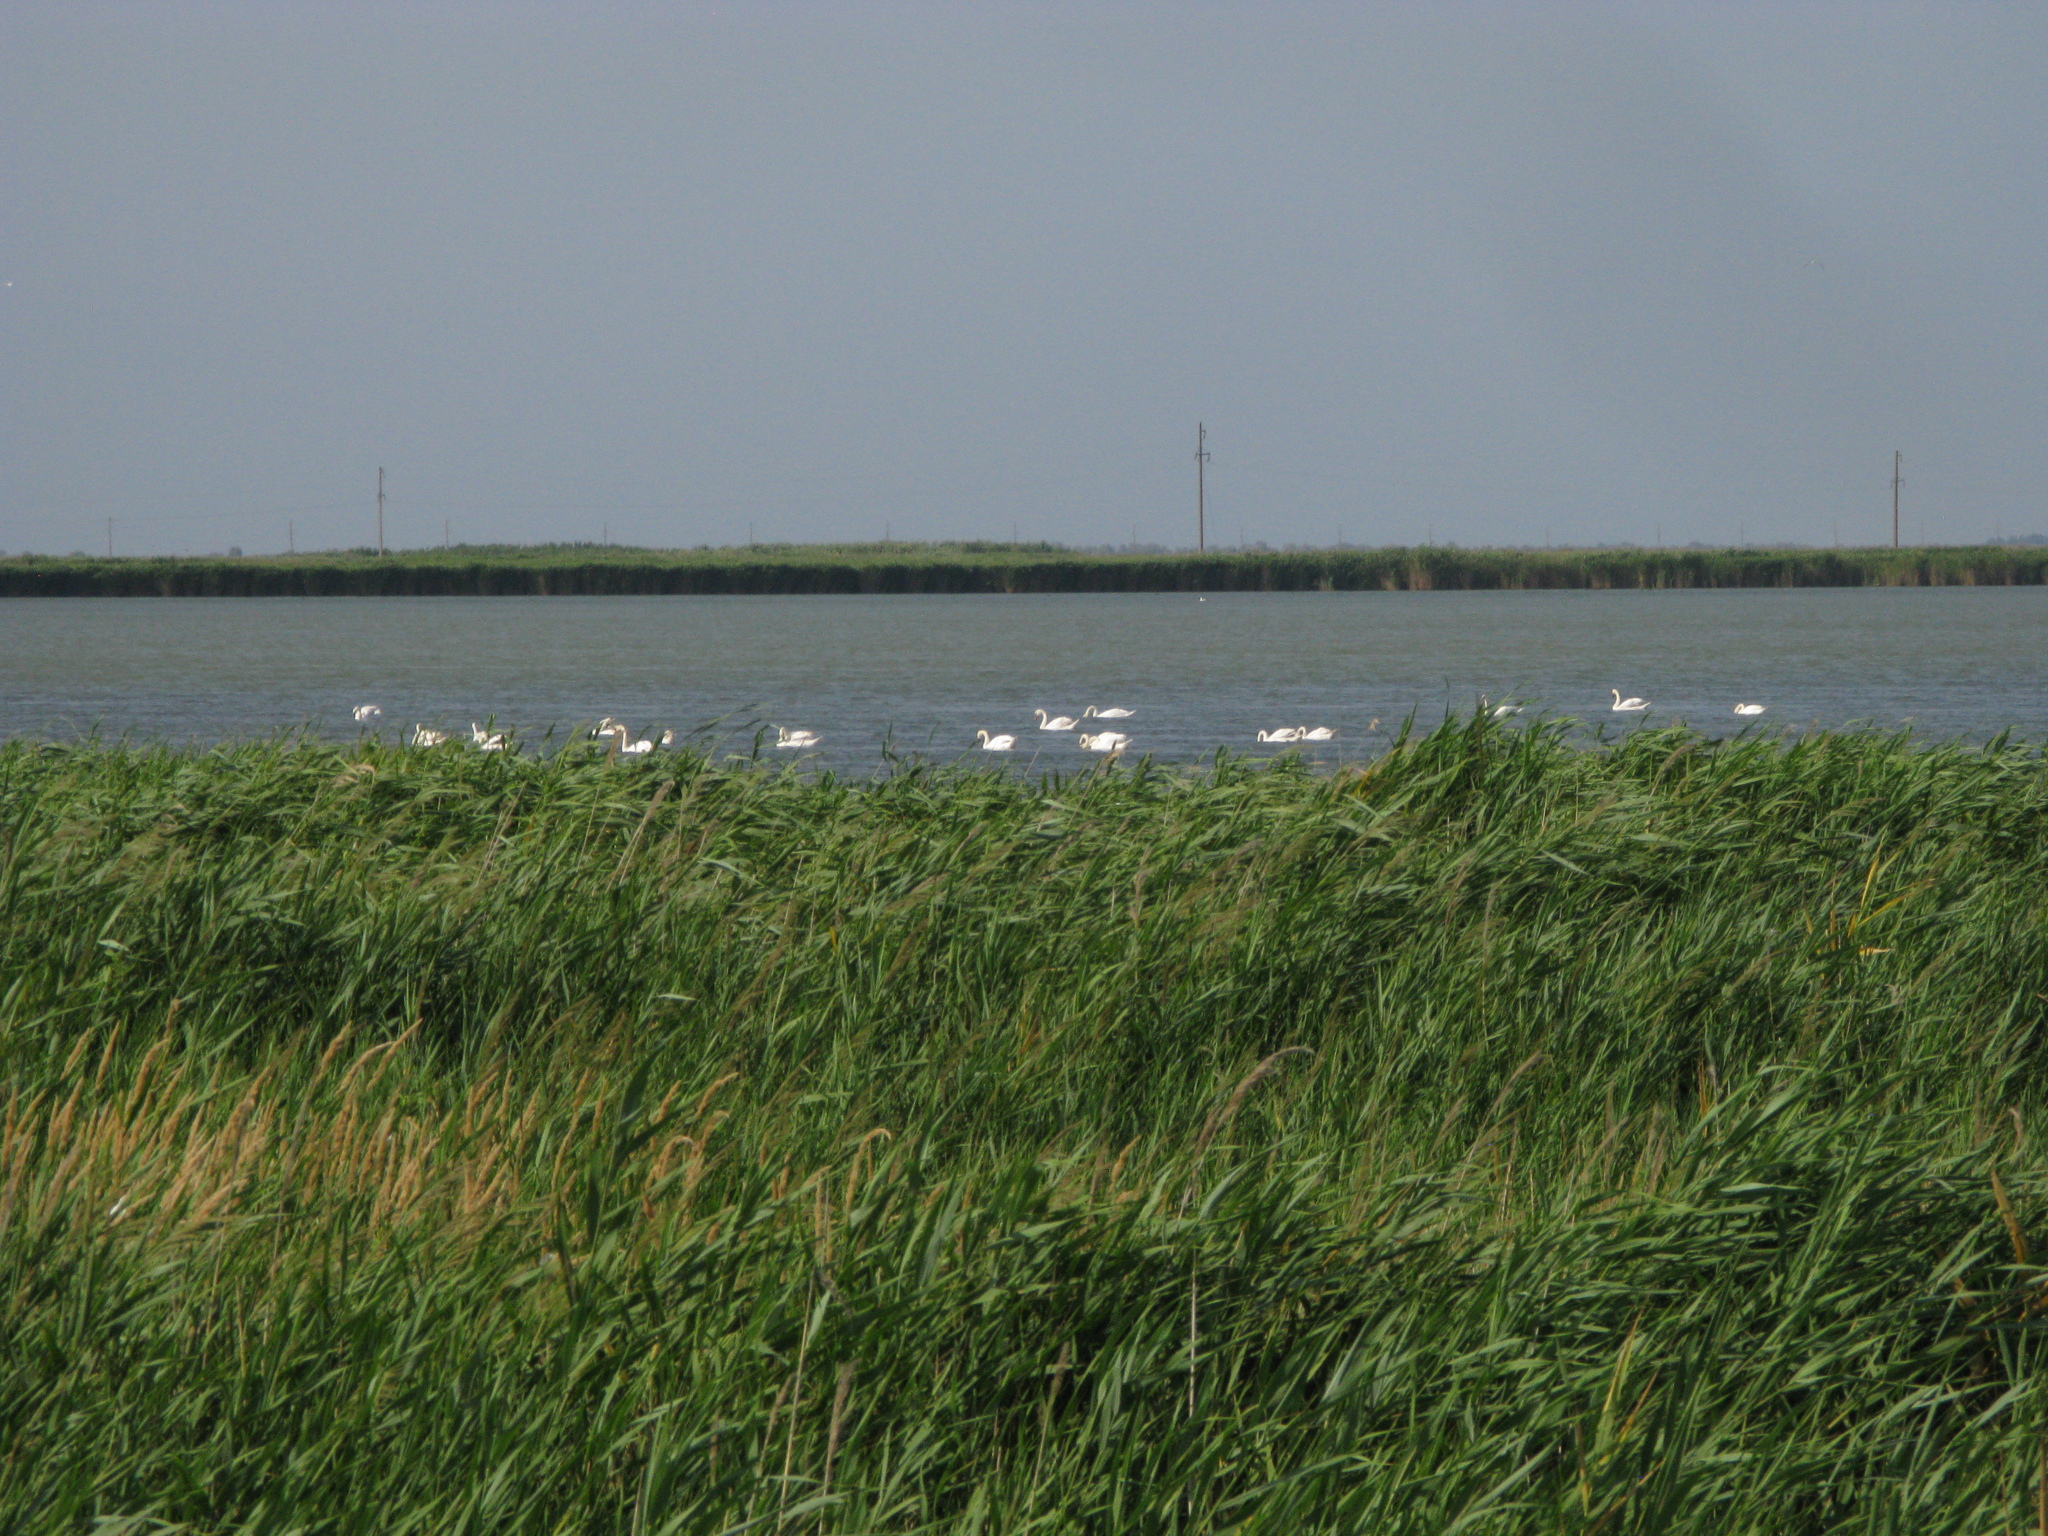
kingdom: Animalia
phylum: Chordata
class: Aves
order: Anseriformes
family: Anatidae
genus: Cygnus
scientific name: Cygnus olor
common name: Mute swan
